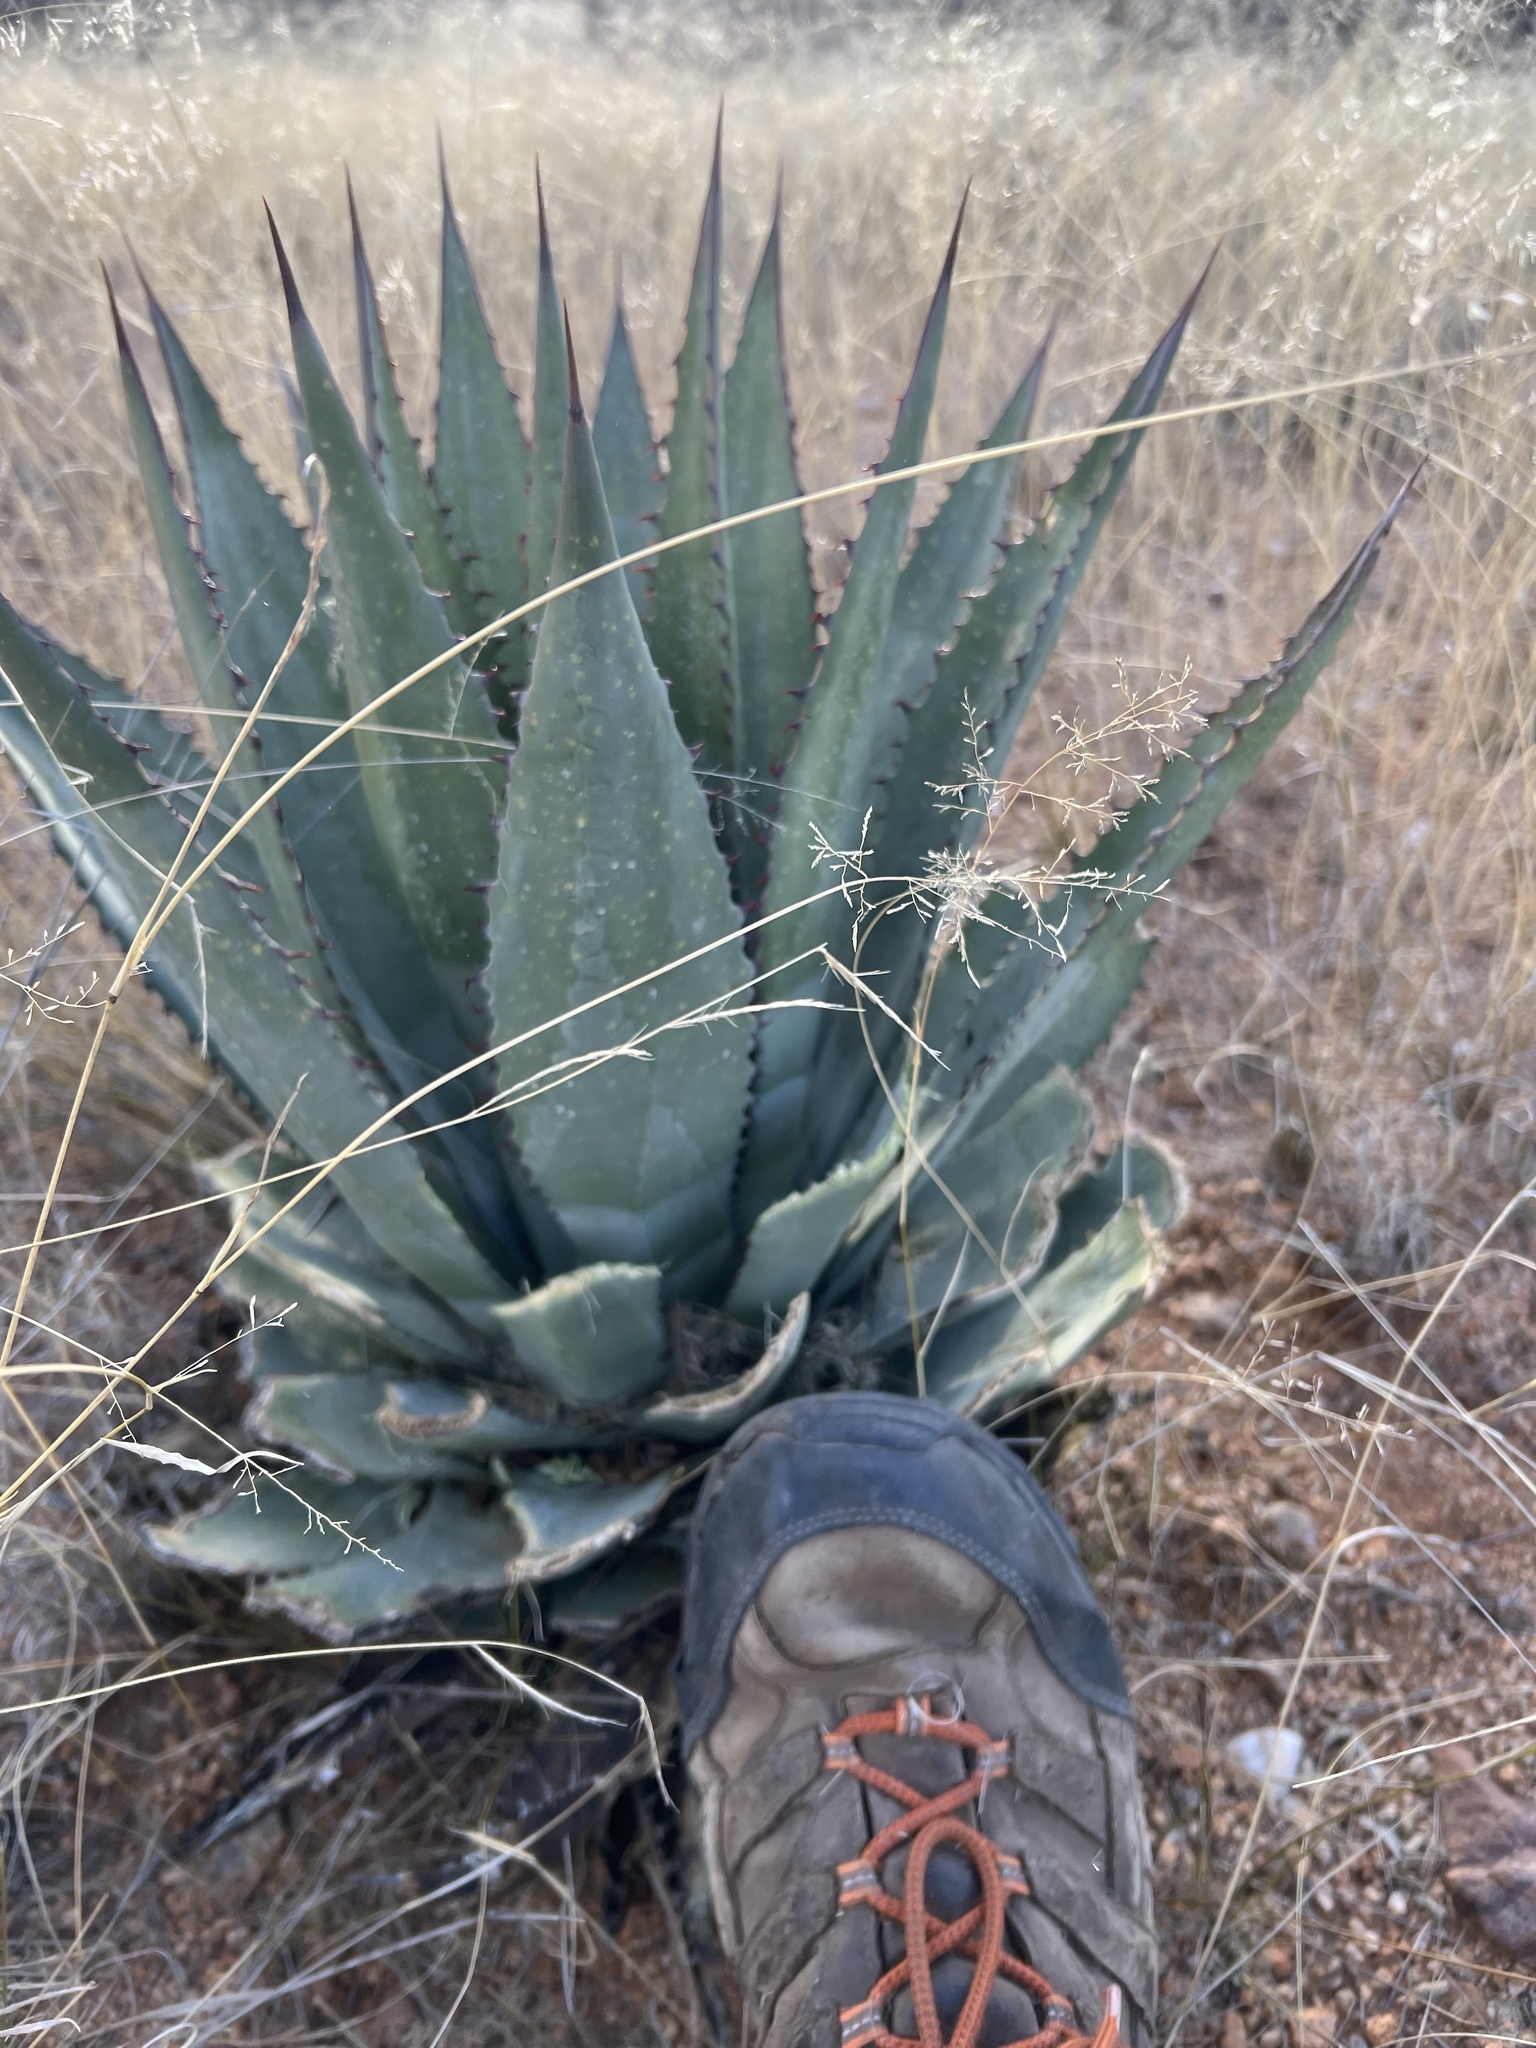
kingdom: Plantae
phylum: Tracheophyta
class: Liliopsida
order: Asparagales
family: Asparagaceae
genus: Agave
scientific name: Agave palmeri
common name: Palmer agave
